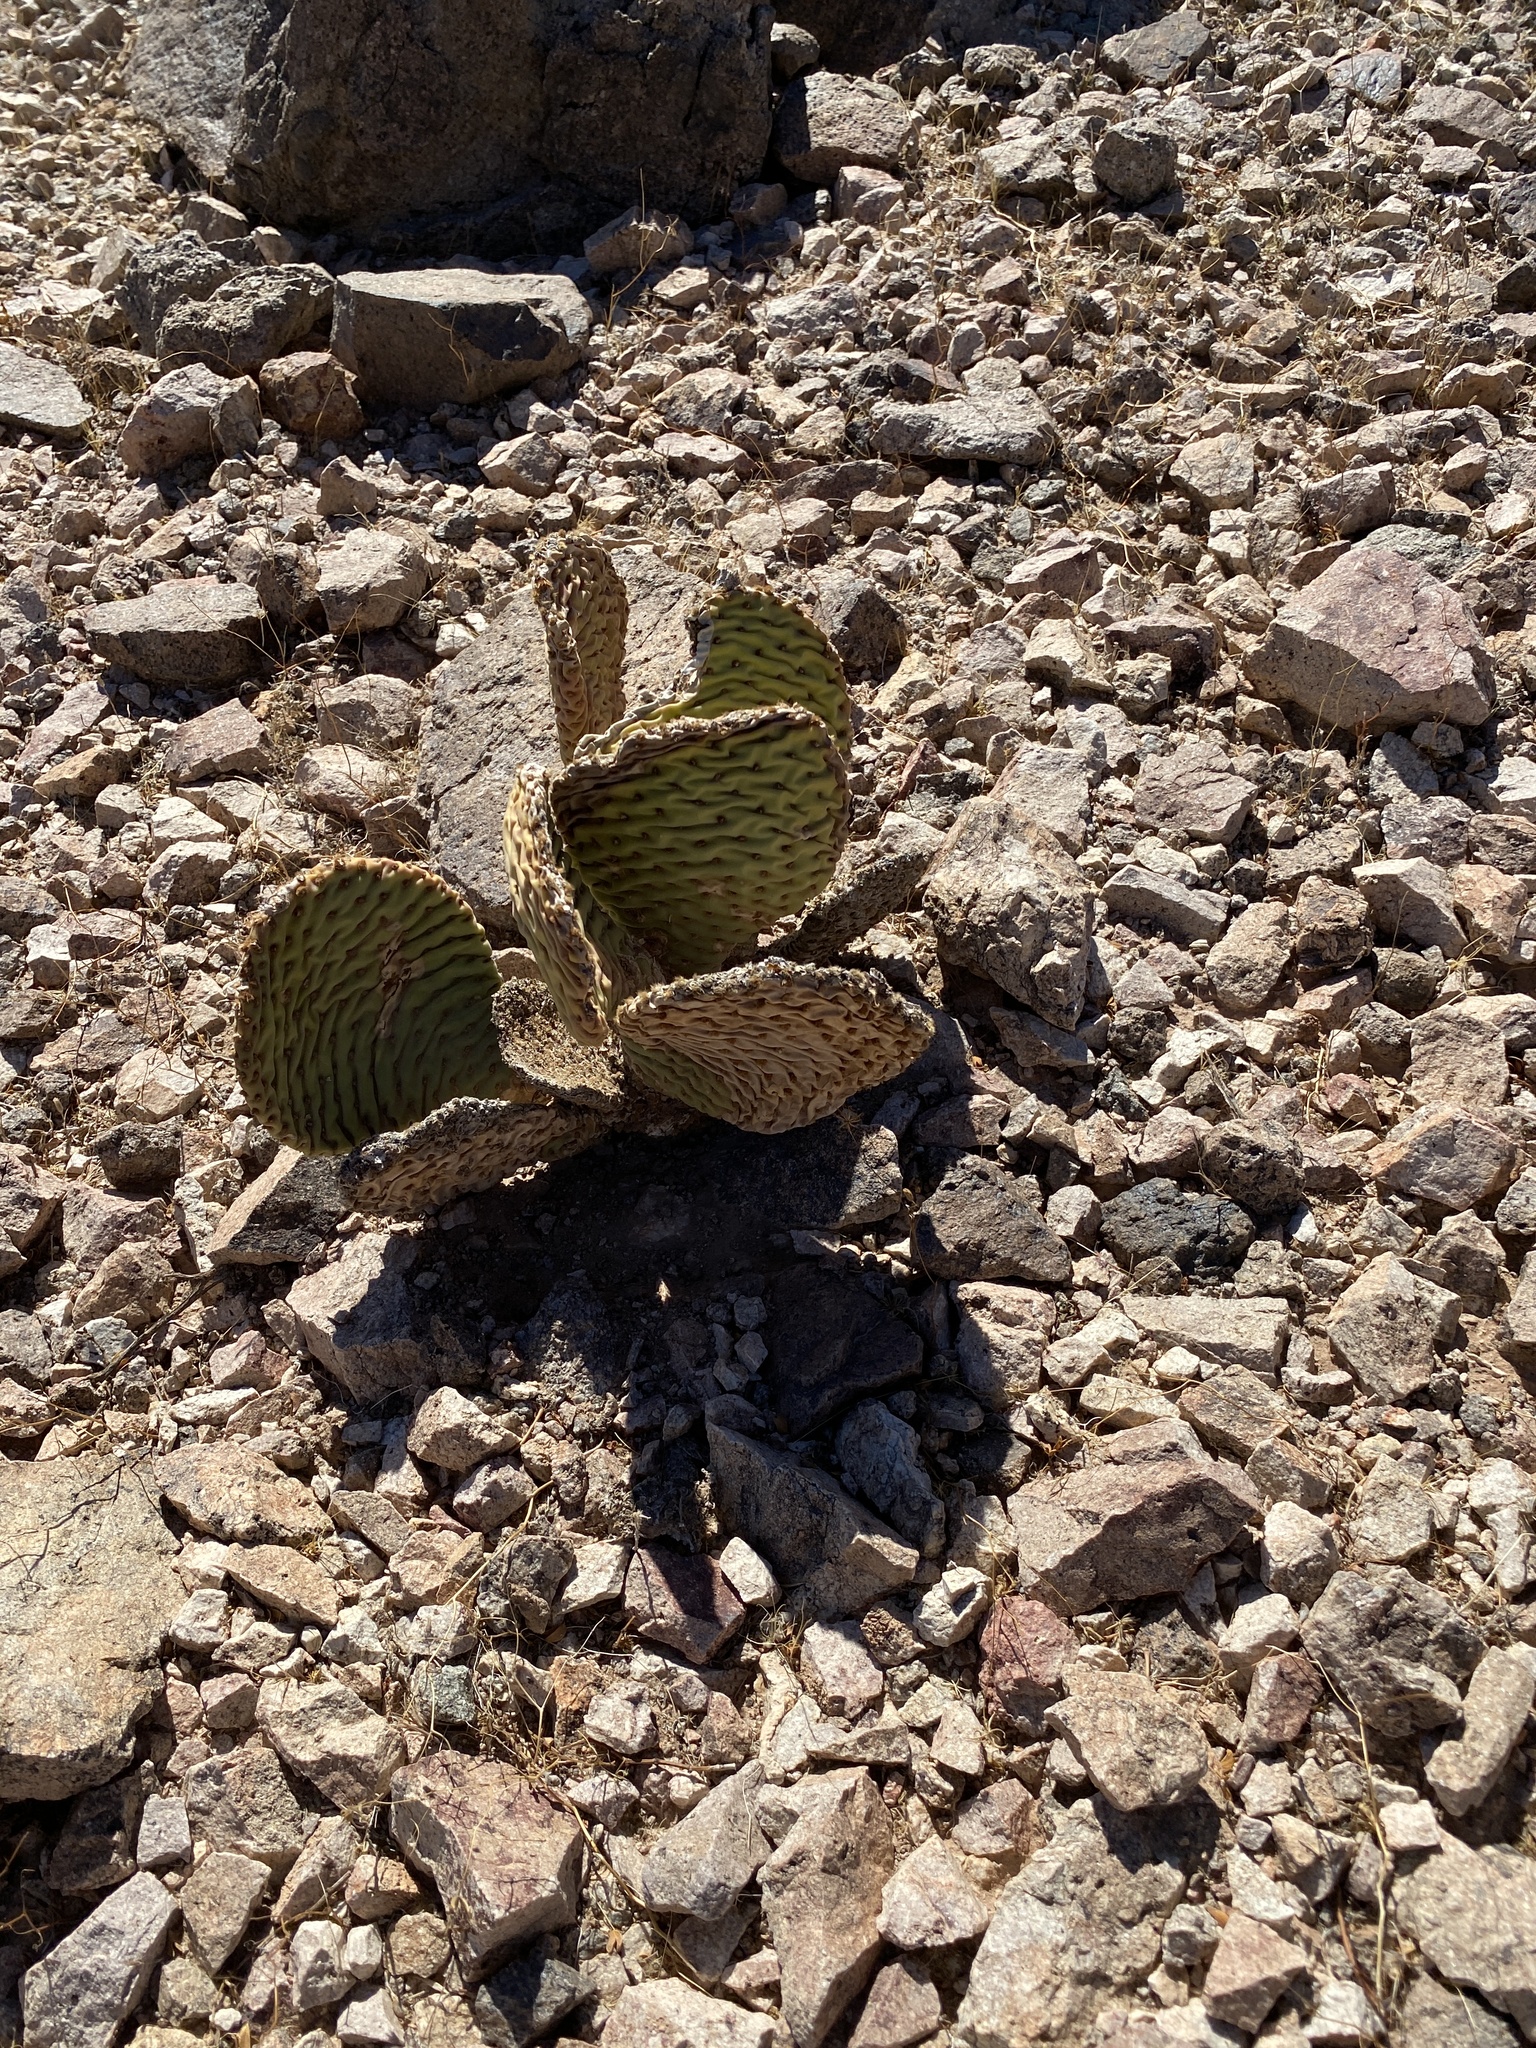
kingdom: Plantae
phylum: Tracheophyta
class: Magnoliopsida
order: Caryophyllales
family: Cactaceae
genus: Opuntia
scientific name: Opuntia basilaris
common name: Beavertail prickly-pear
